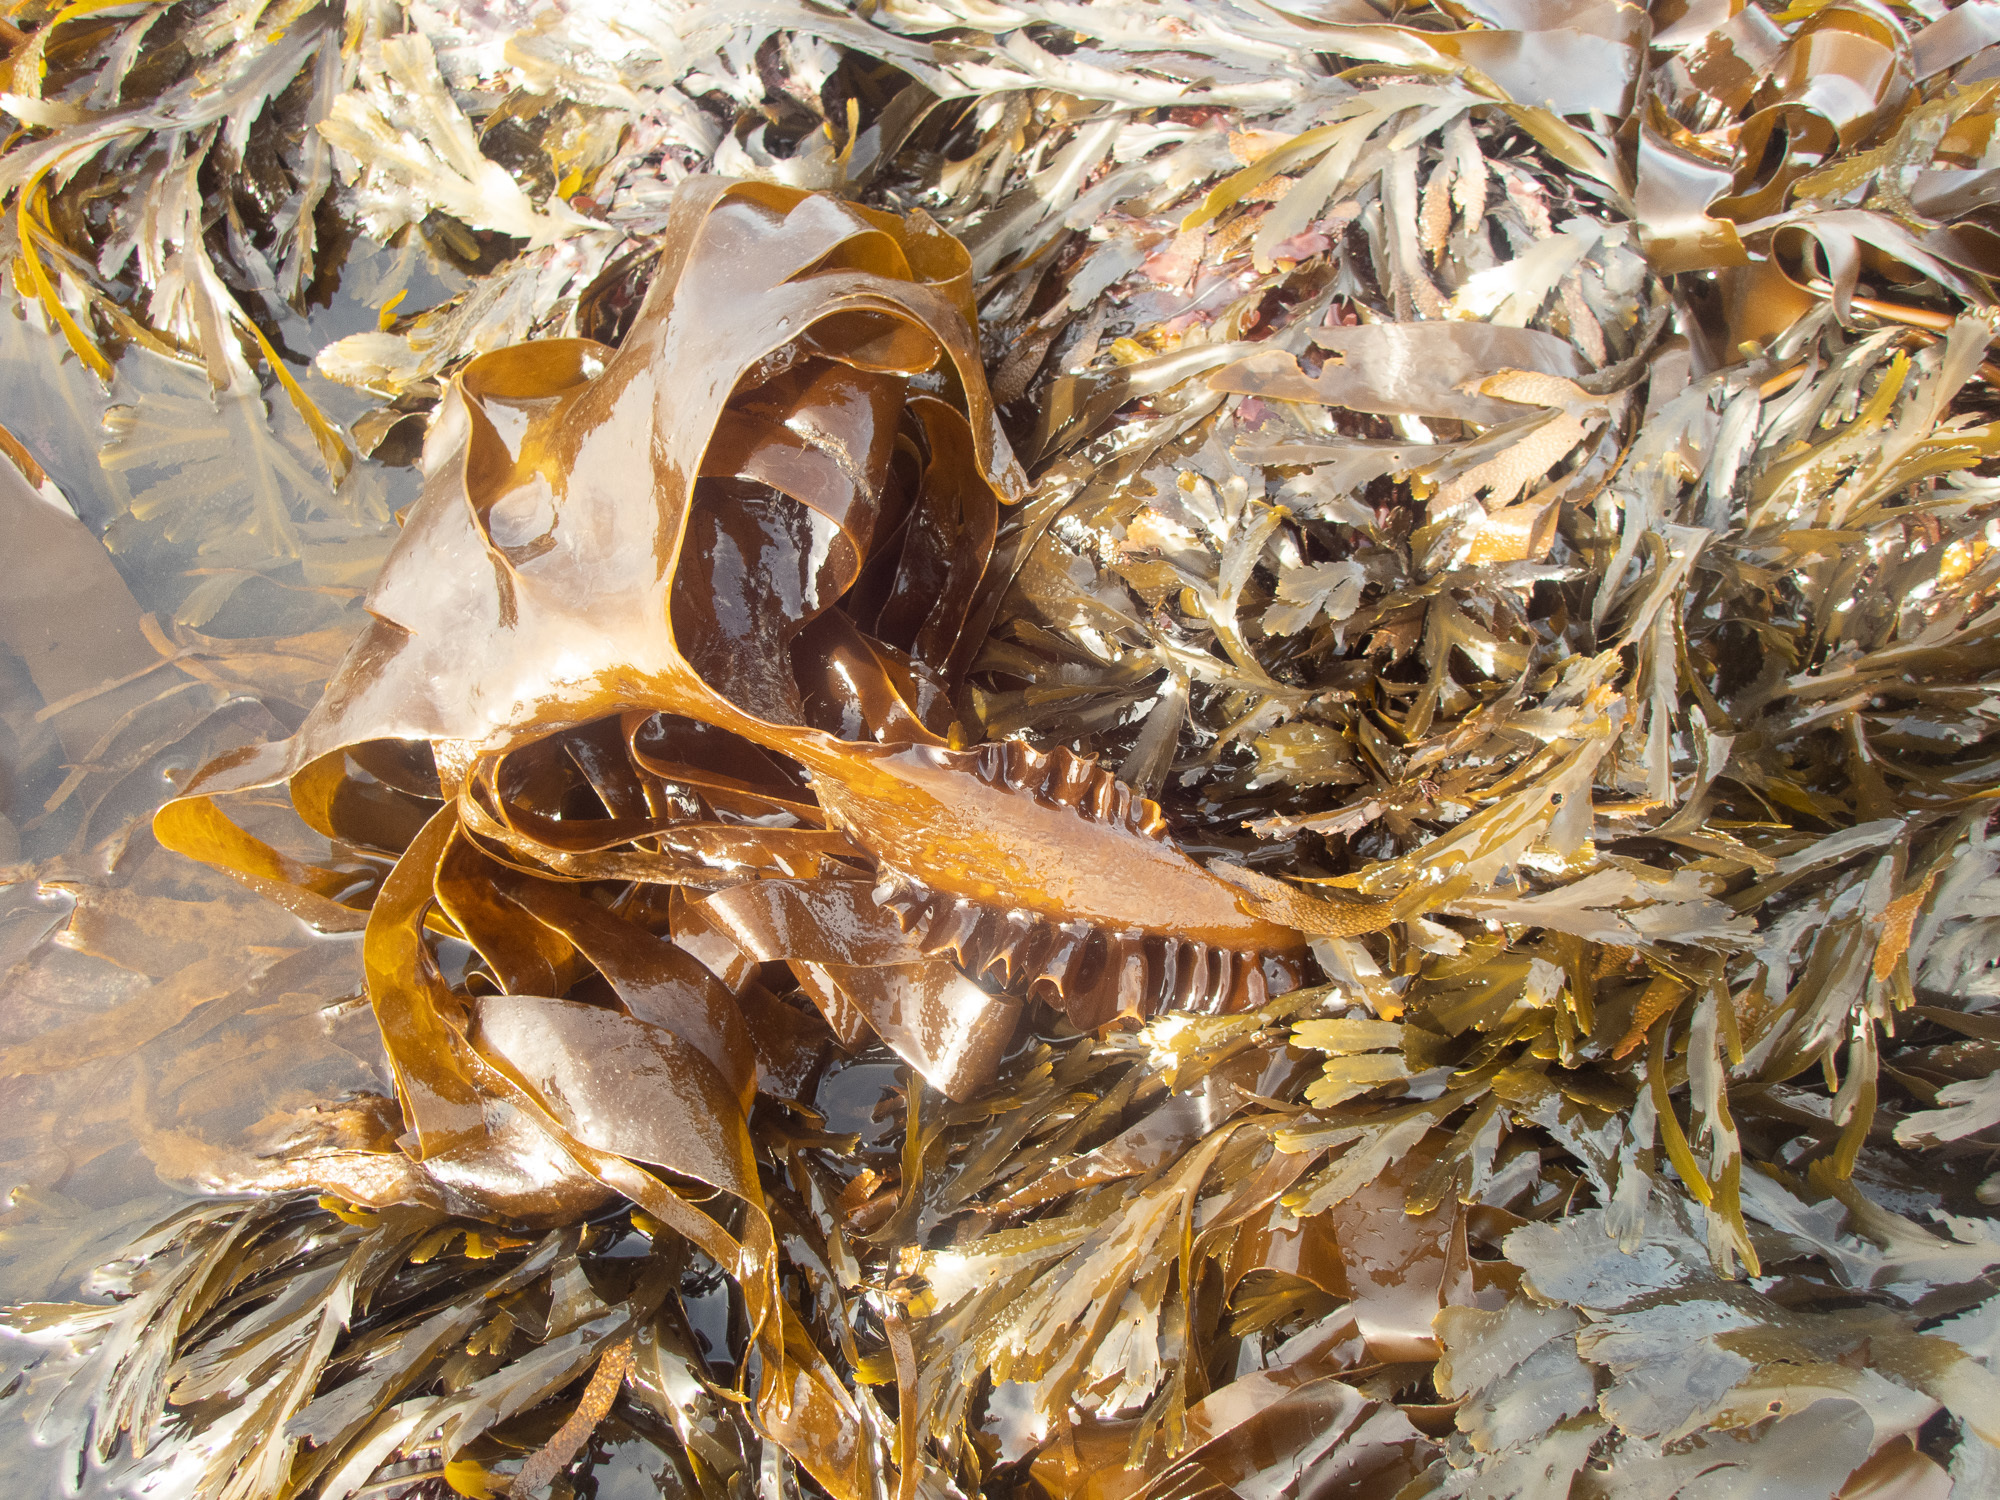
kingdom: Chromista
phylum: Ochrophyta
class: Phaeophyceae
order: Tilopteridales
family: Phyllariaceae
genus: Saccorhiza
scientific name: Saccorhiza polyschides
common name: Furbelows
